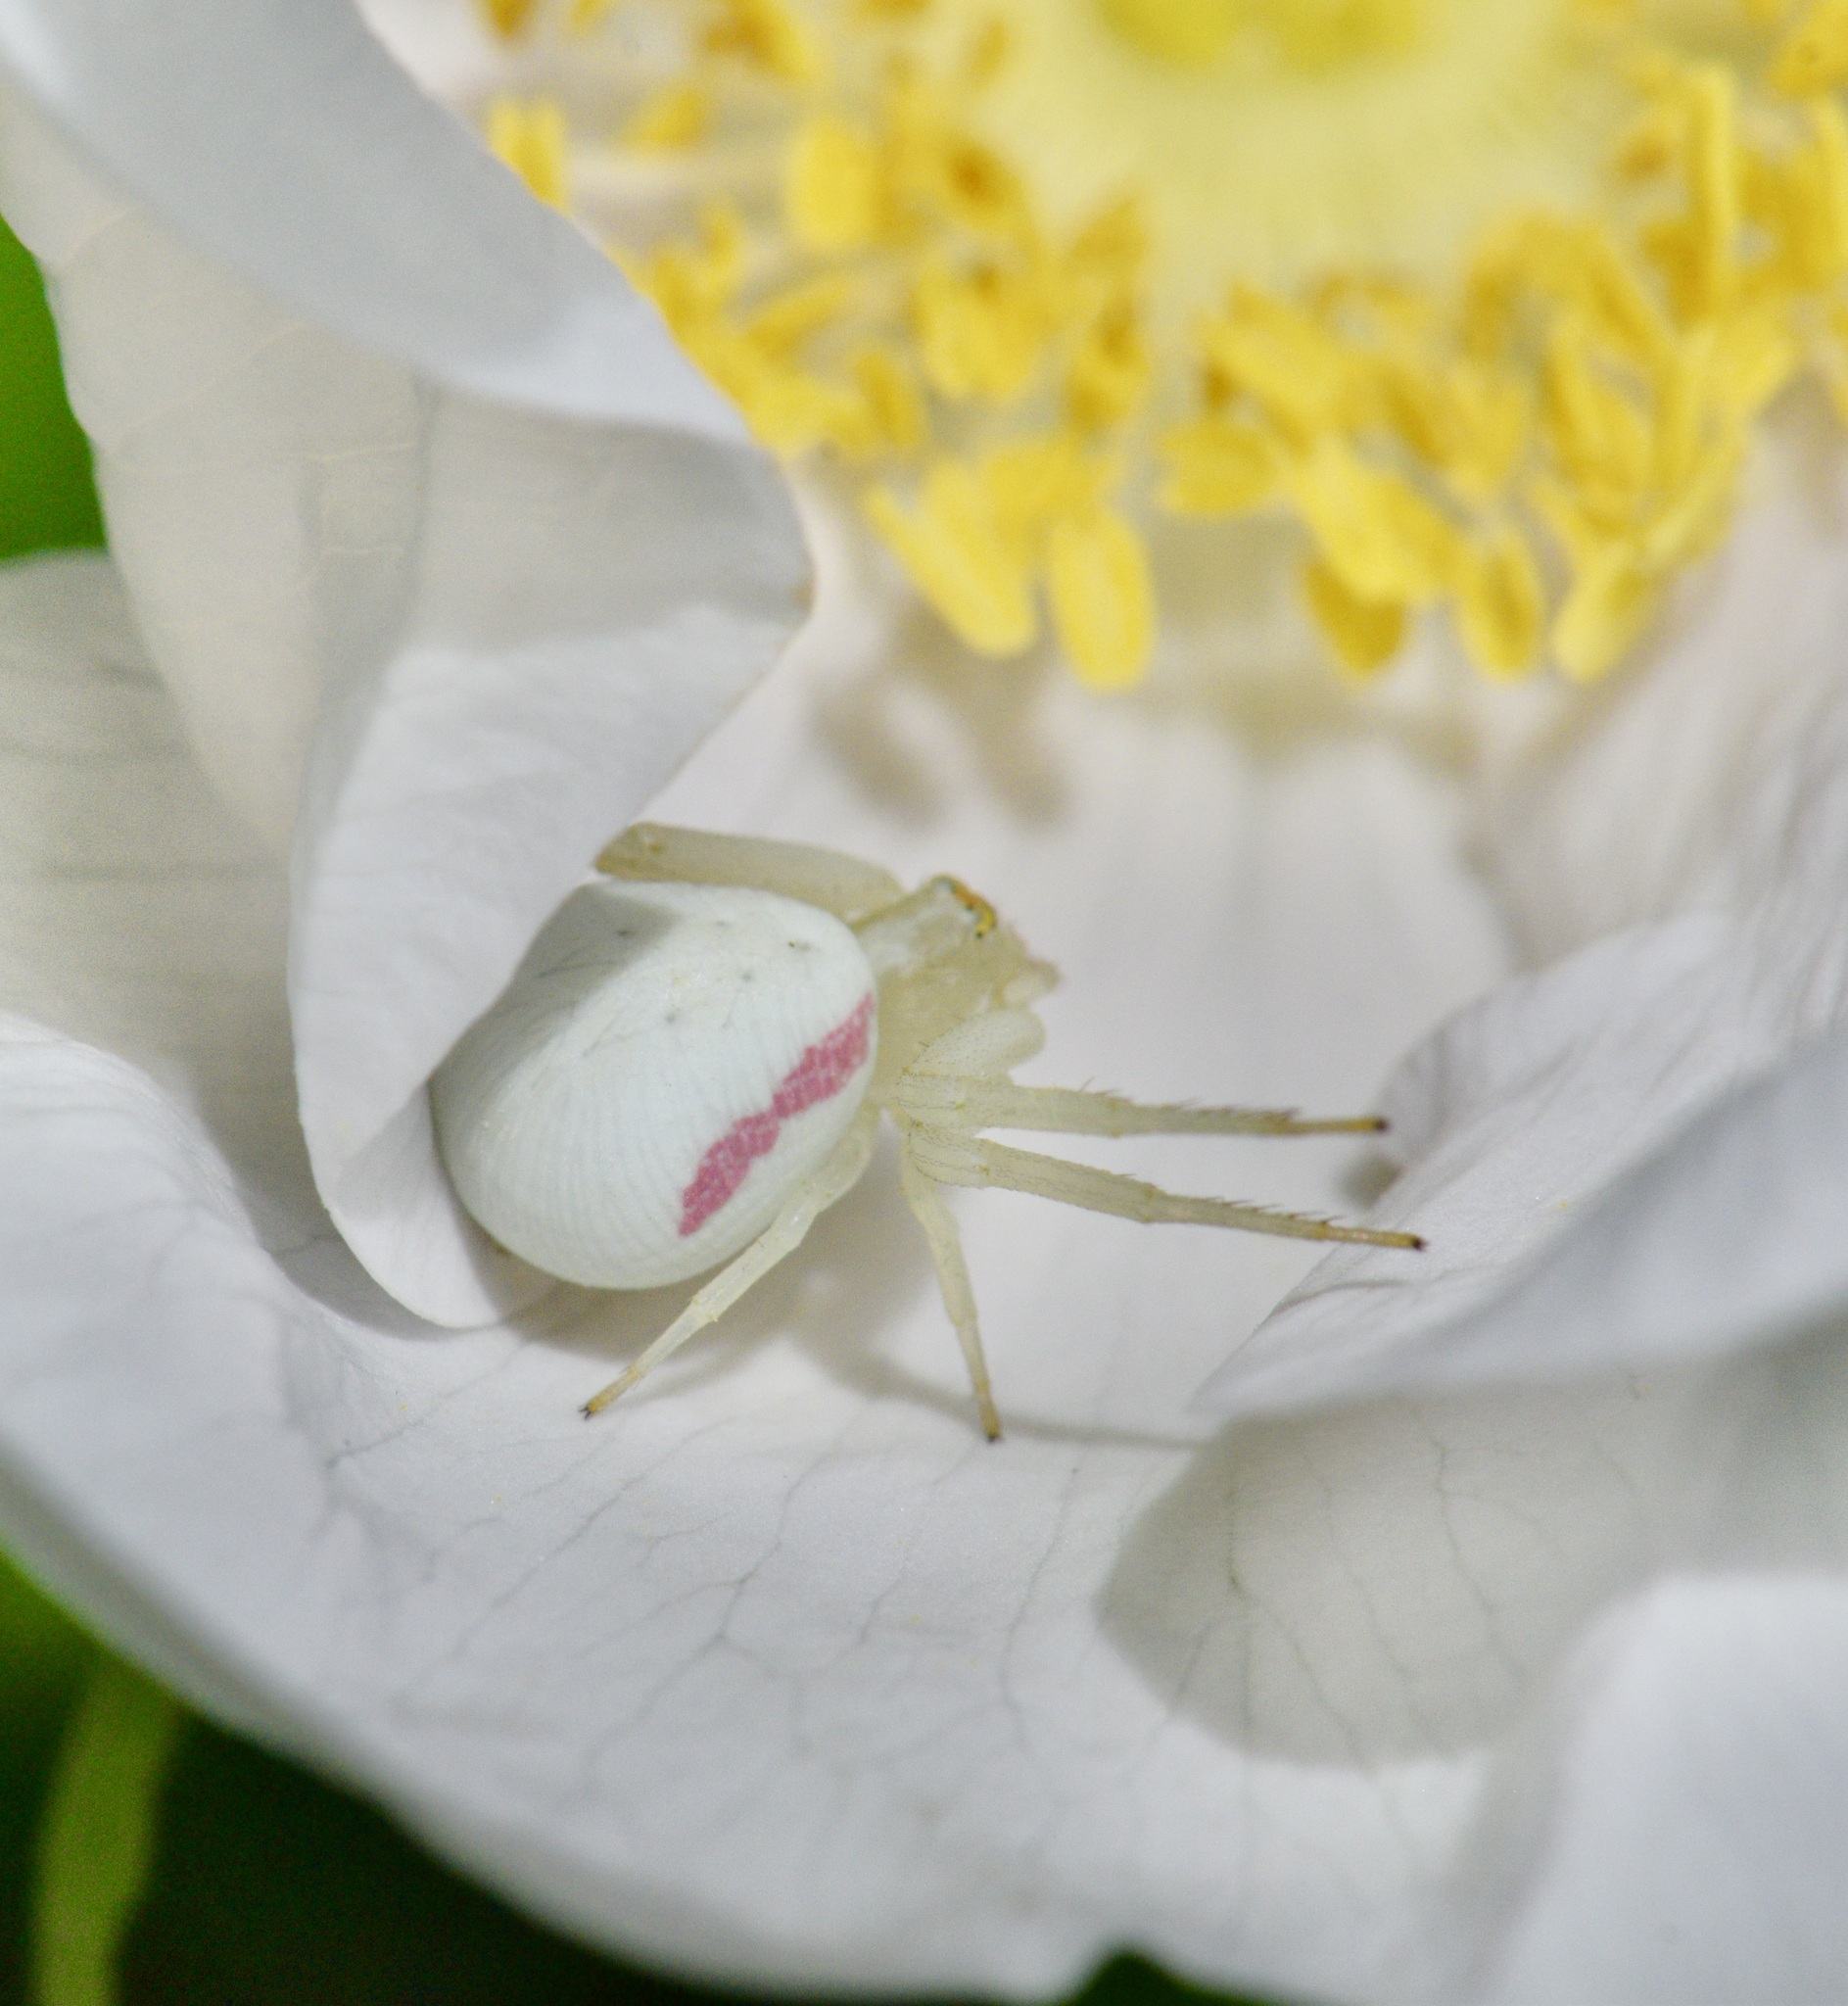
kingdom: Animalia
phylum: Arthropoda
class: Arachnida
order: Araneae
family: Thomisidae
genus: Misumena
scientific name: Misumena vatia
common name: Goldenrod crab spider
